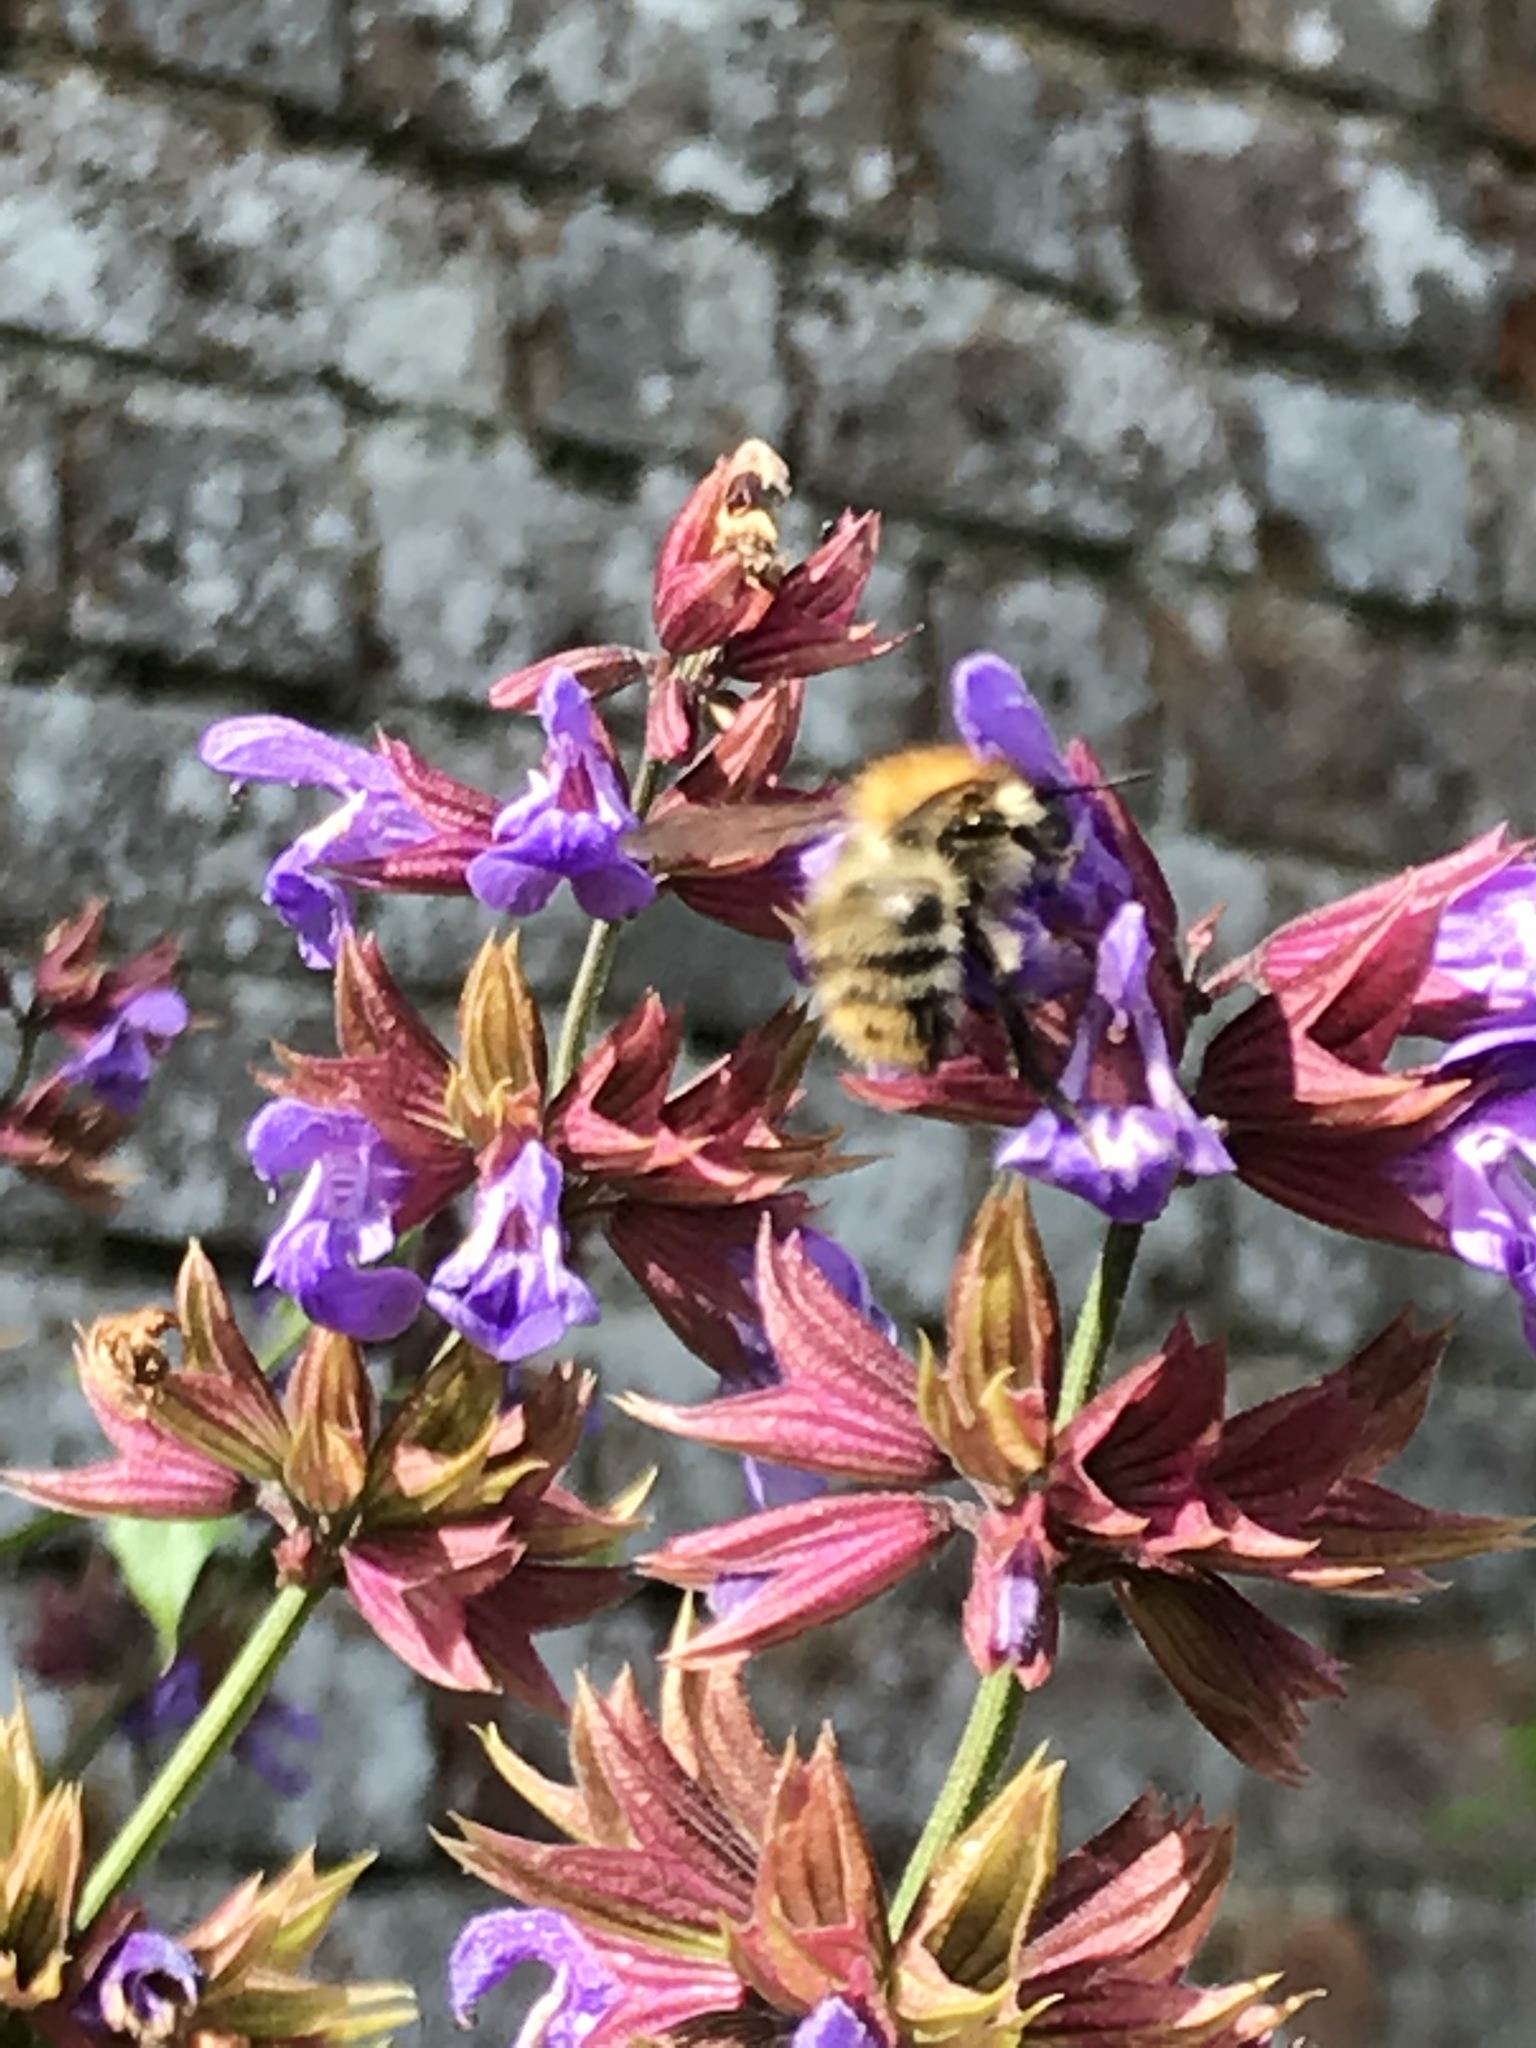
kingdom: Animalia
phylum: Arthropoda
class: Insecta
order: Hymenoptera
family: Apidae
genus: Bombus
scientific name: Bombus pascuorum
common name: Common carder bee
